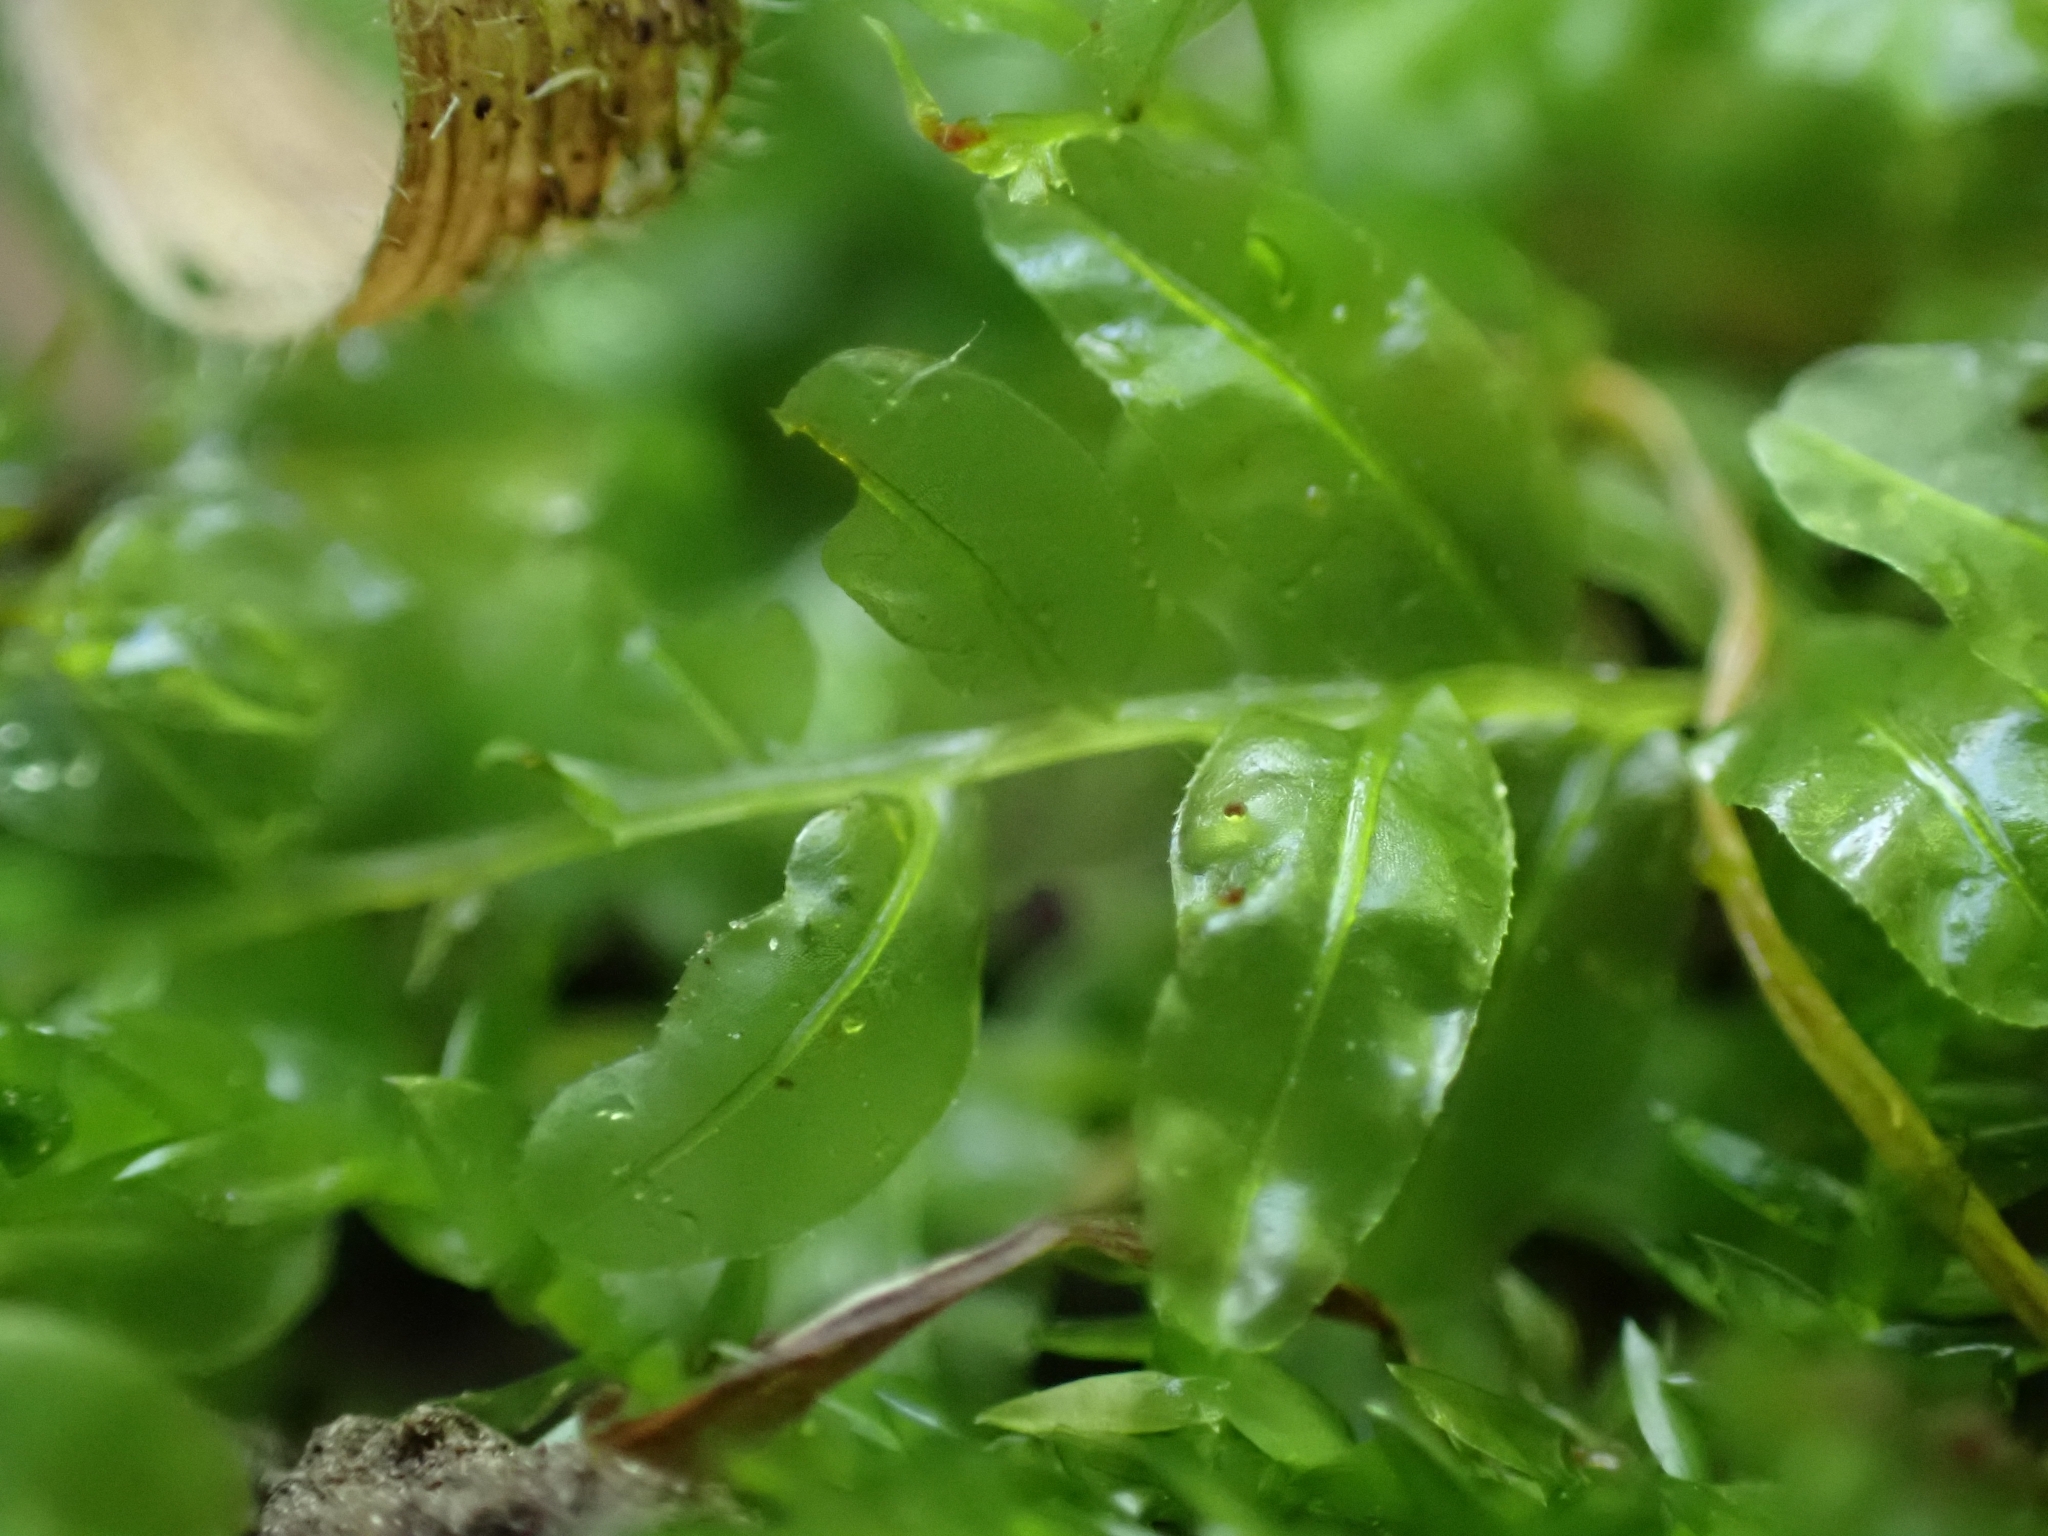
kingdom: Plantae
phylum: Bryophyta
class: Bryopsida
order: Bryales
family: Mniaceae
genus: Plagiomnium
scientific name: Plagiomnium undulatum
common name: Hart's-tongue thyme-moss
